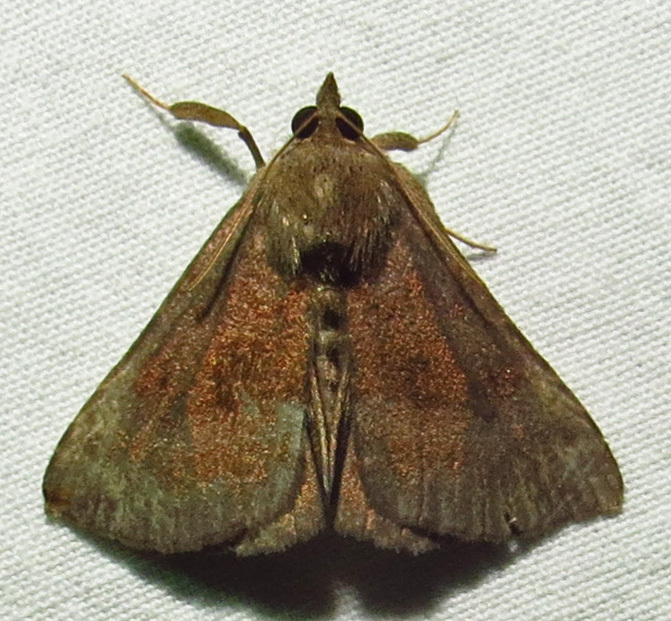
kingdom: Animalia
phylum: Arthropoda
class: Insecta
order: Lepidoptera
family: Erebidae
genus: Hypena
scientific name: Hypena madefactalis
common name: Gray-edged snout
